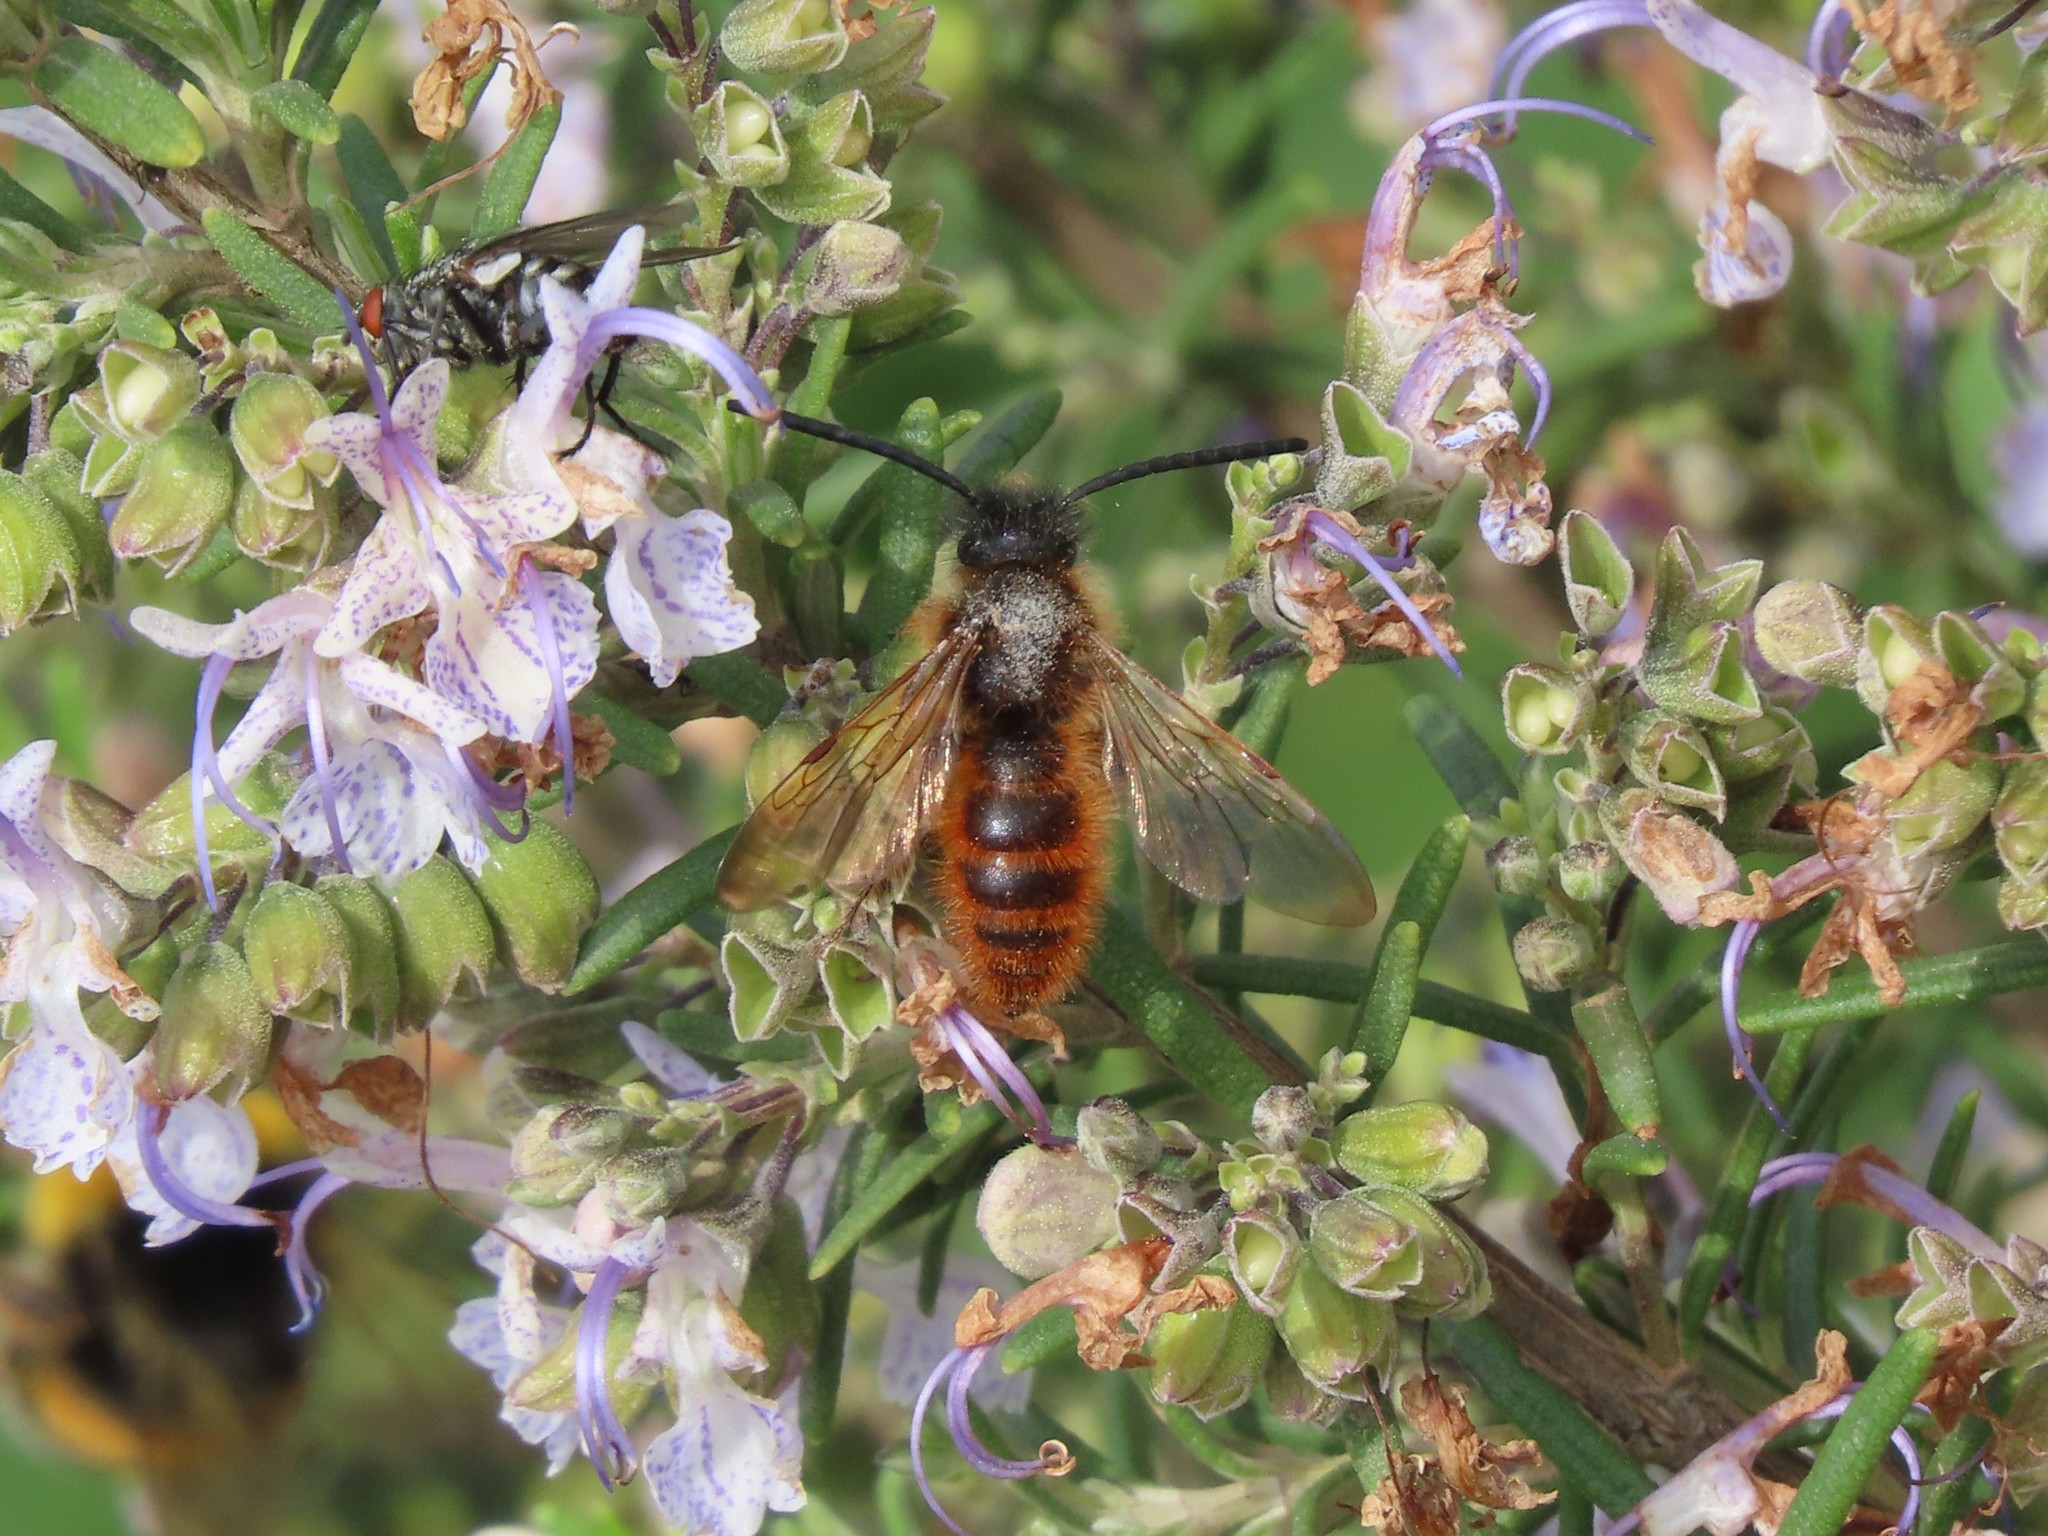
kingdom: Animalia
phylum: Arthropoda
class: Insecta
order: Hymenoptera
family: Scoliidae
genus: Dasyscolia
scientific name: Dasyscolia ciliata
